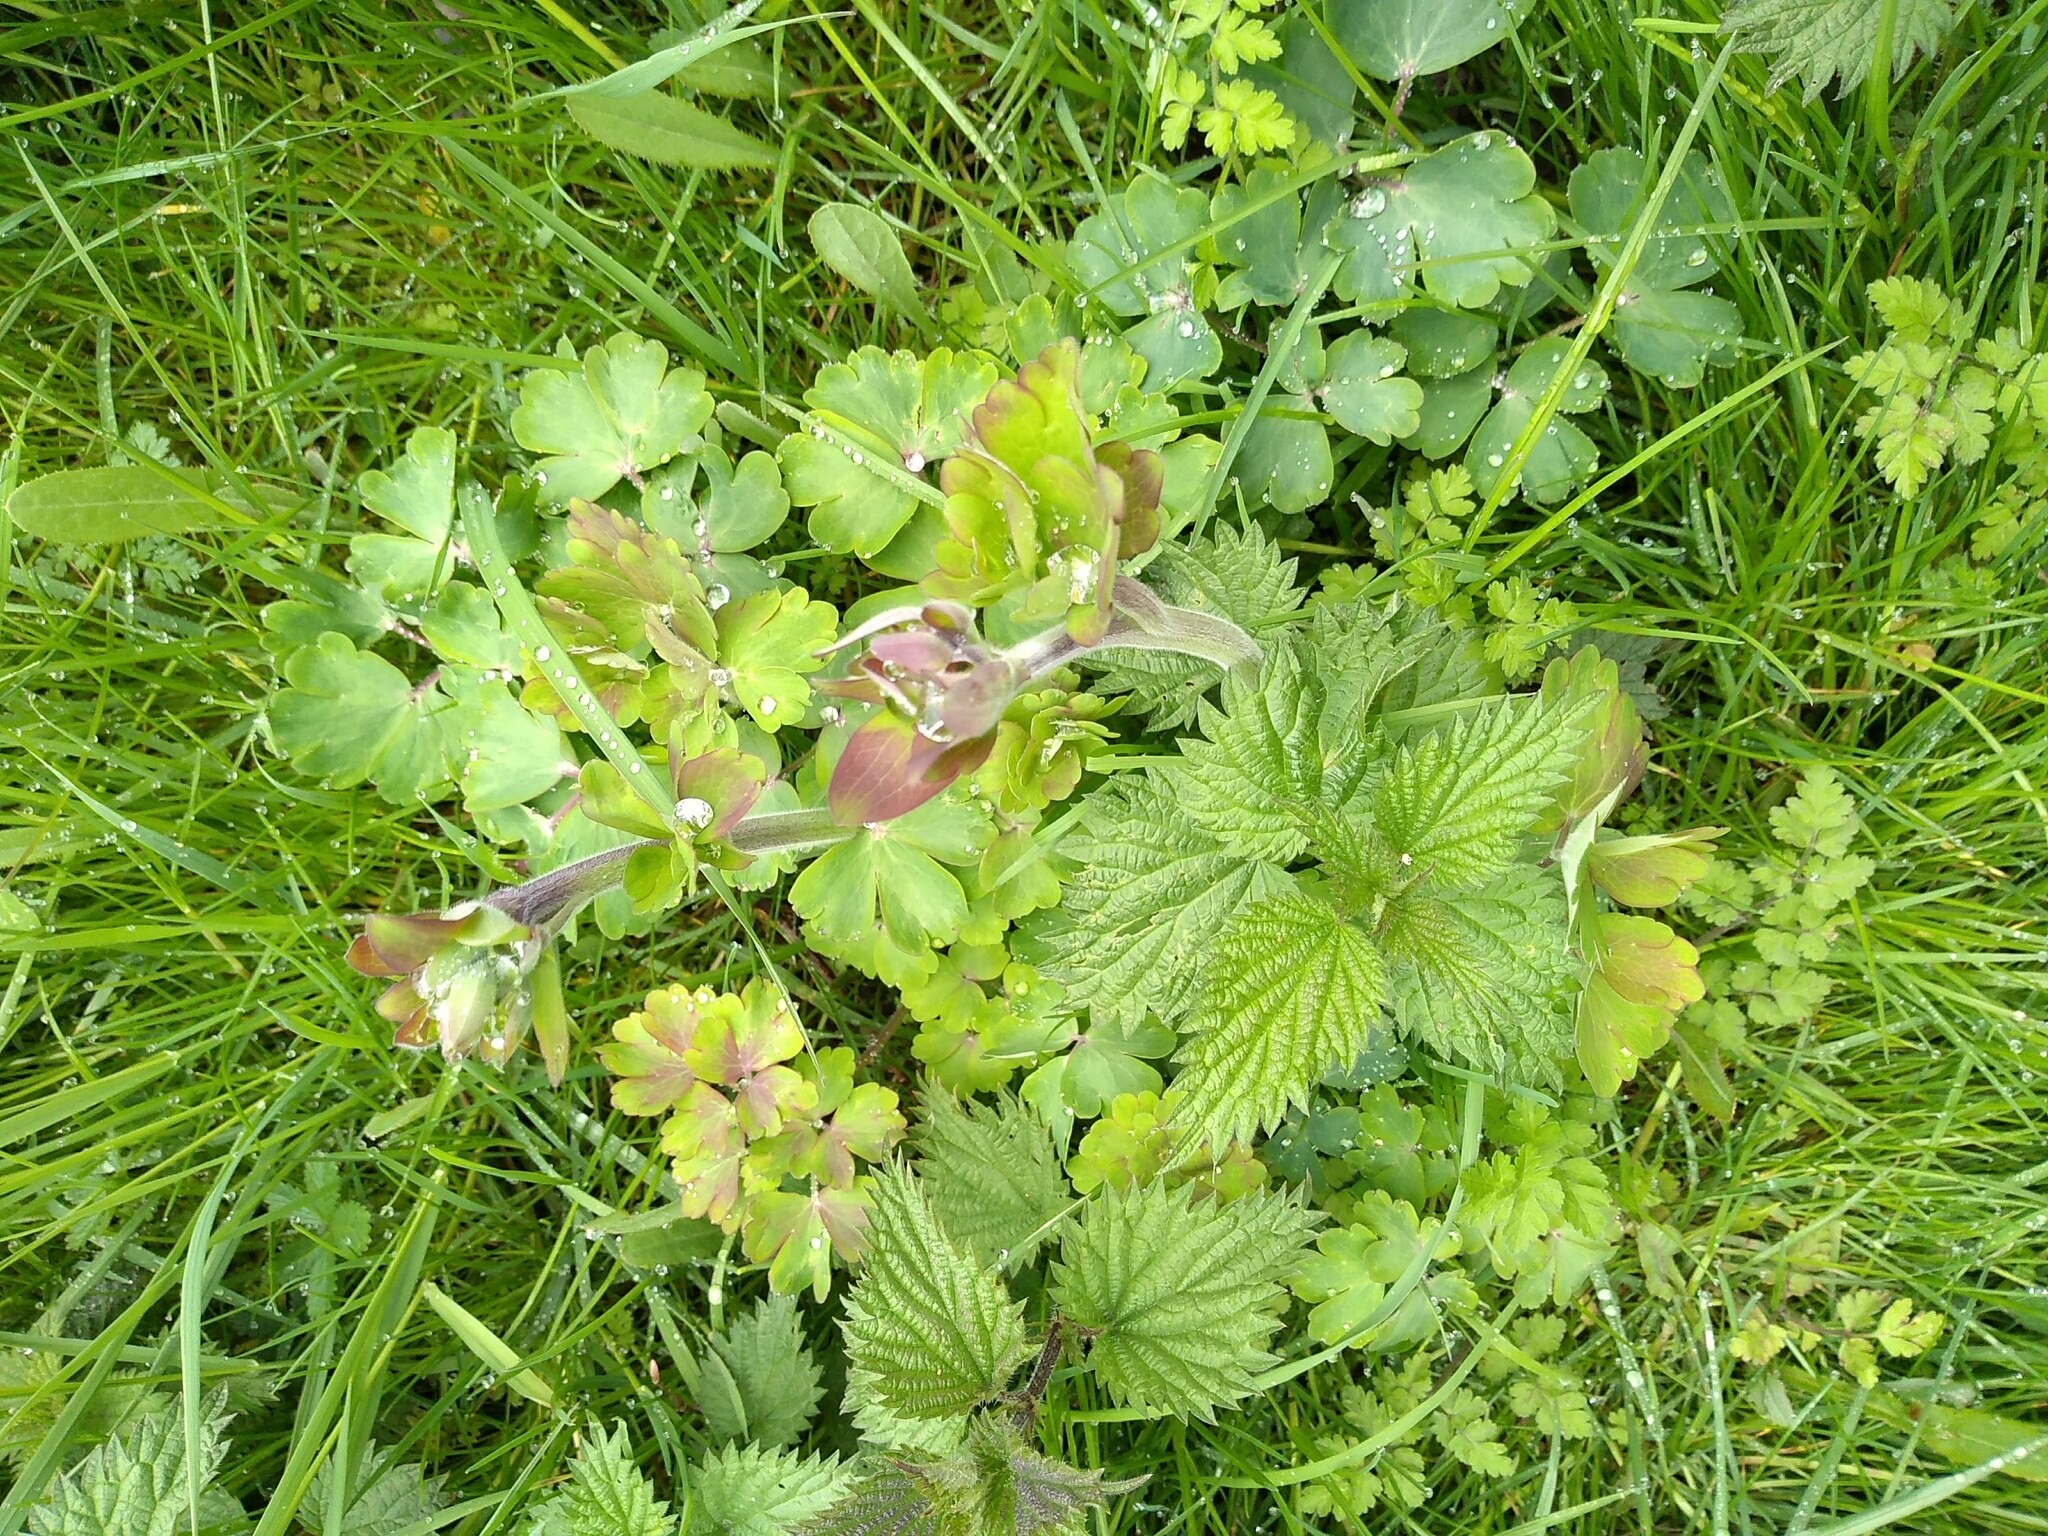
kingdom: Plantae
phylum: Tracheophyta
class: Magnoliopsida
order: Ranunculales
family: Ranunculaceae
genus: Aquilegia
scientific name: Aquilegia vulgaris
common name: Columbine
